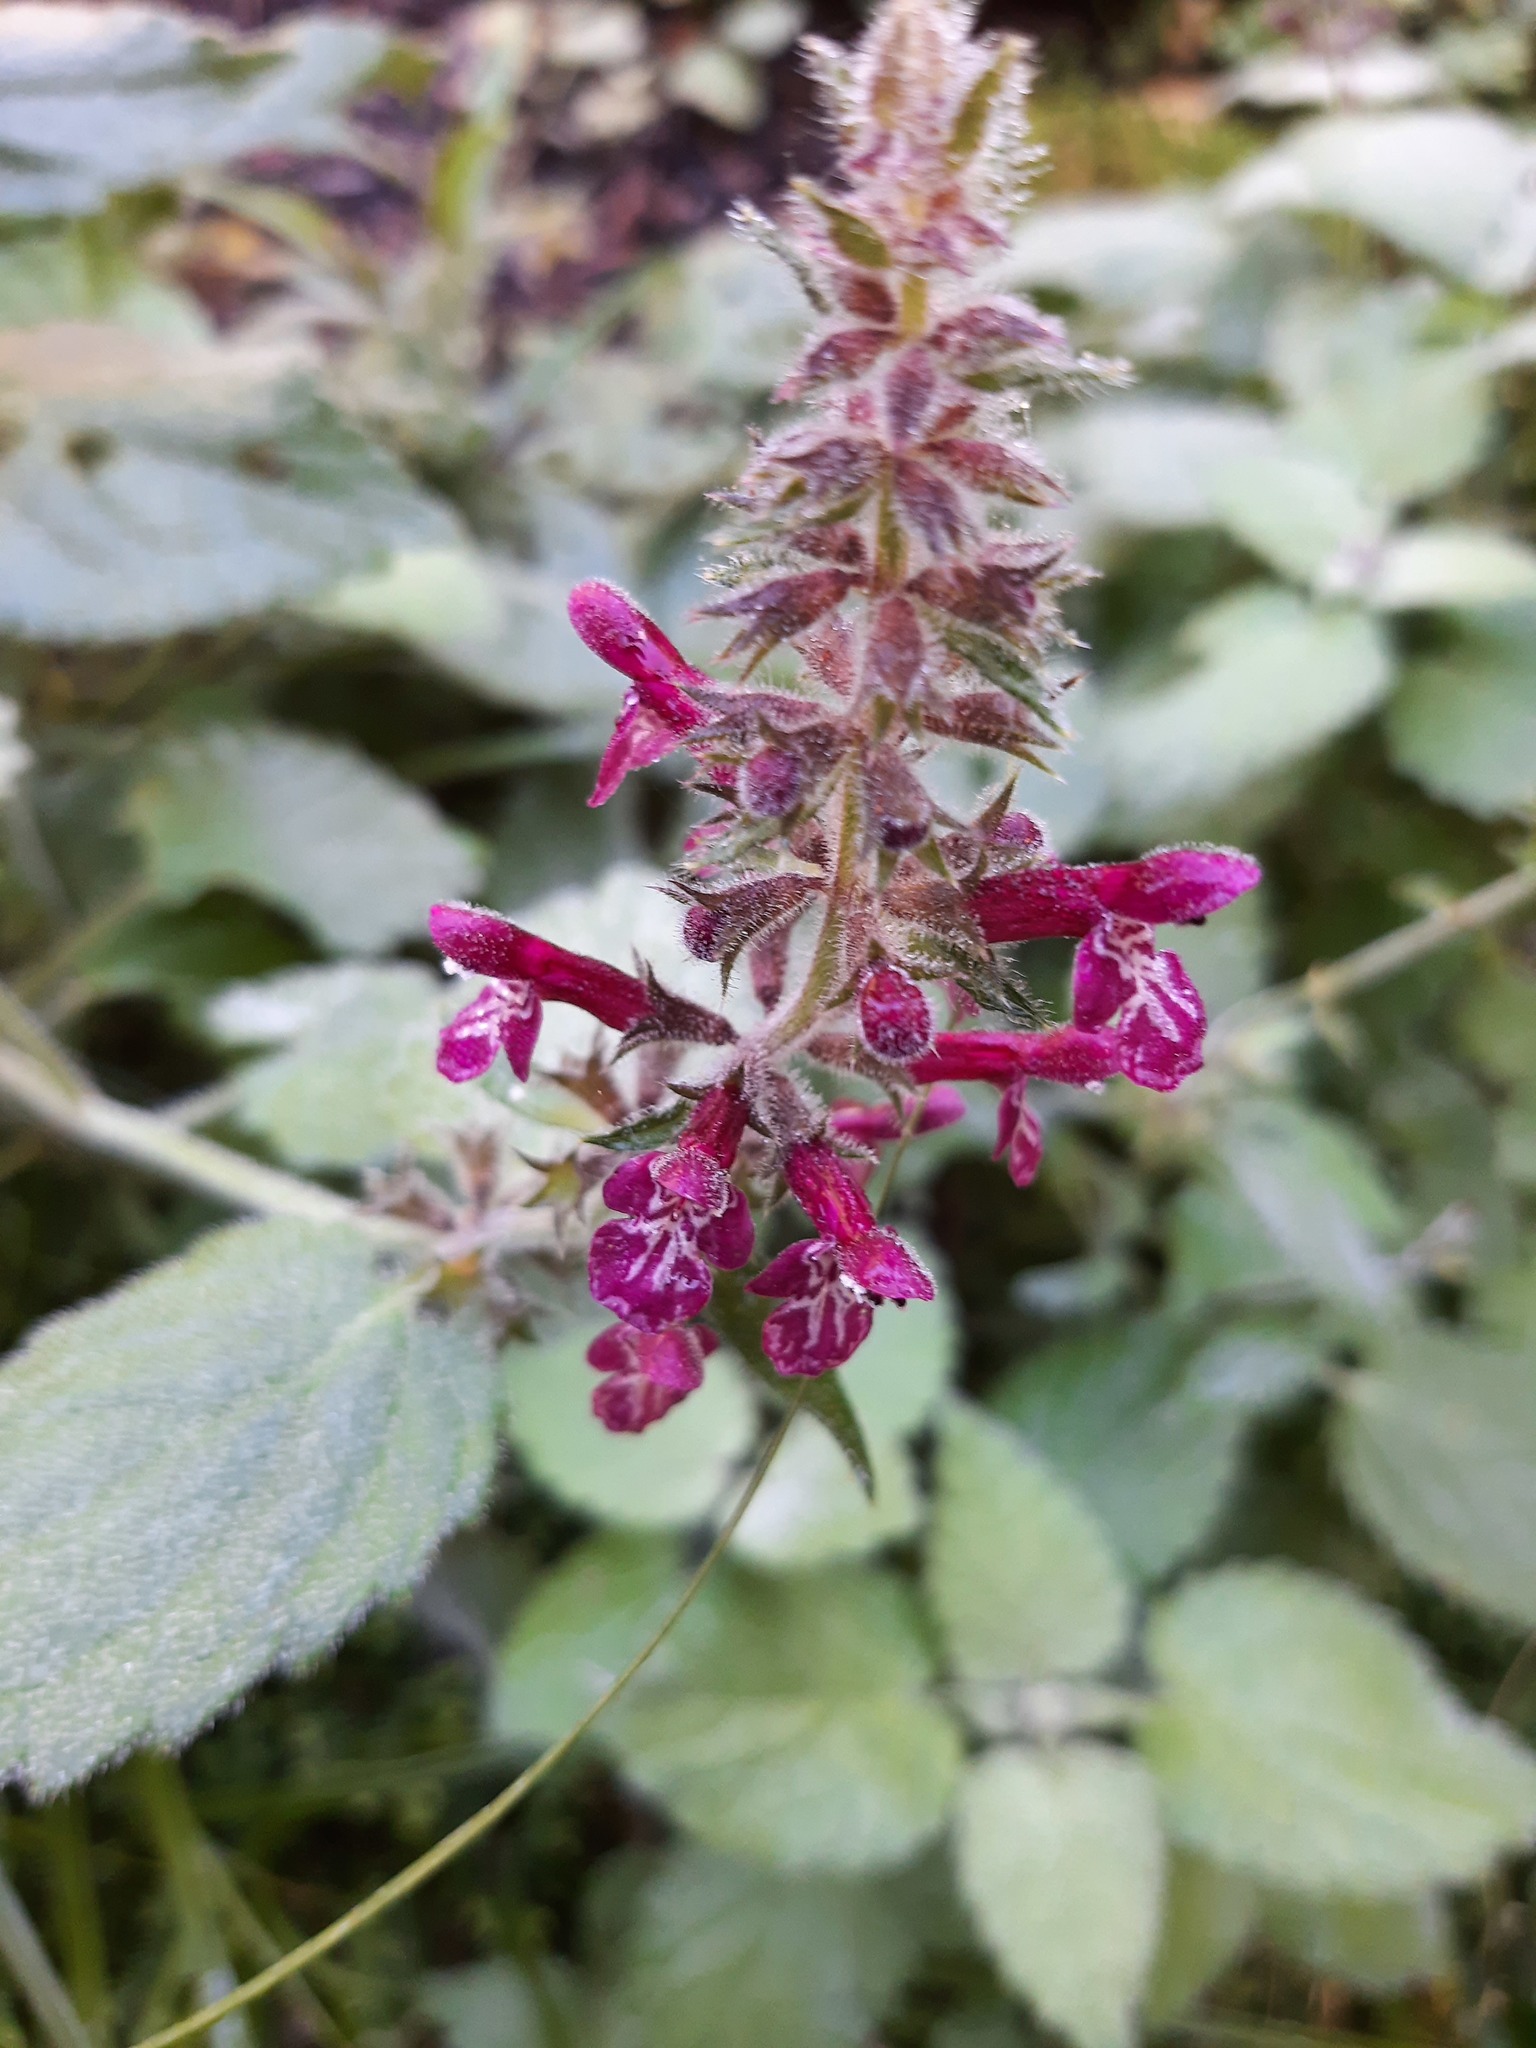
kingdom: Plantae
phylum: Tracheophyta
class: Magnoliopsida
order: Lamiales
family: Lamiaceae
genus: Stachys
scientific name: Stachys sylvatica
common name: Hedge woundwort
